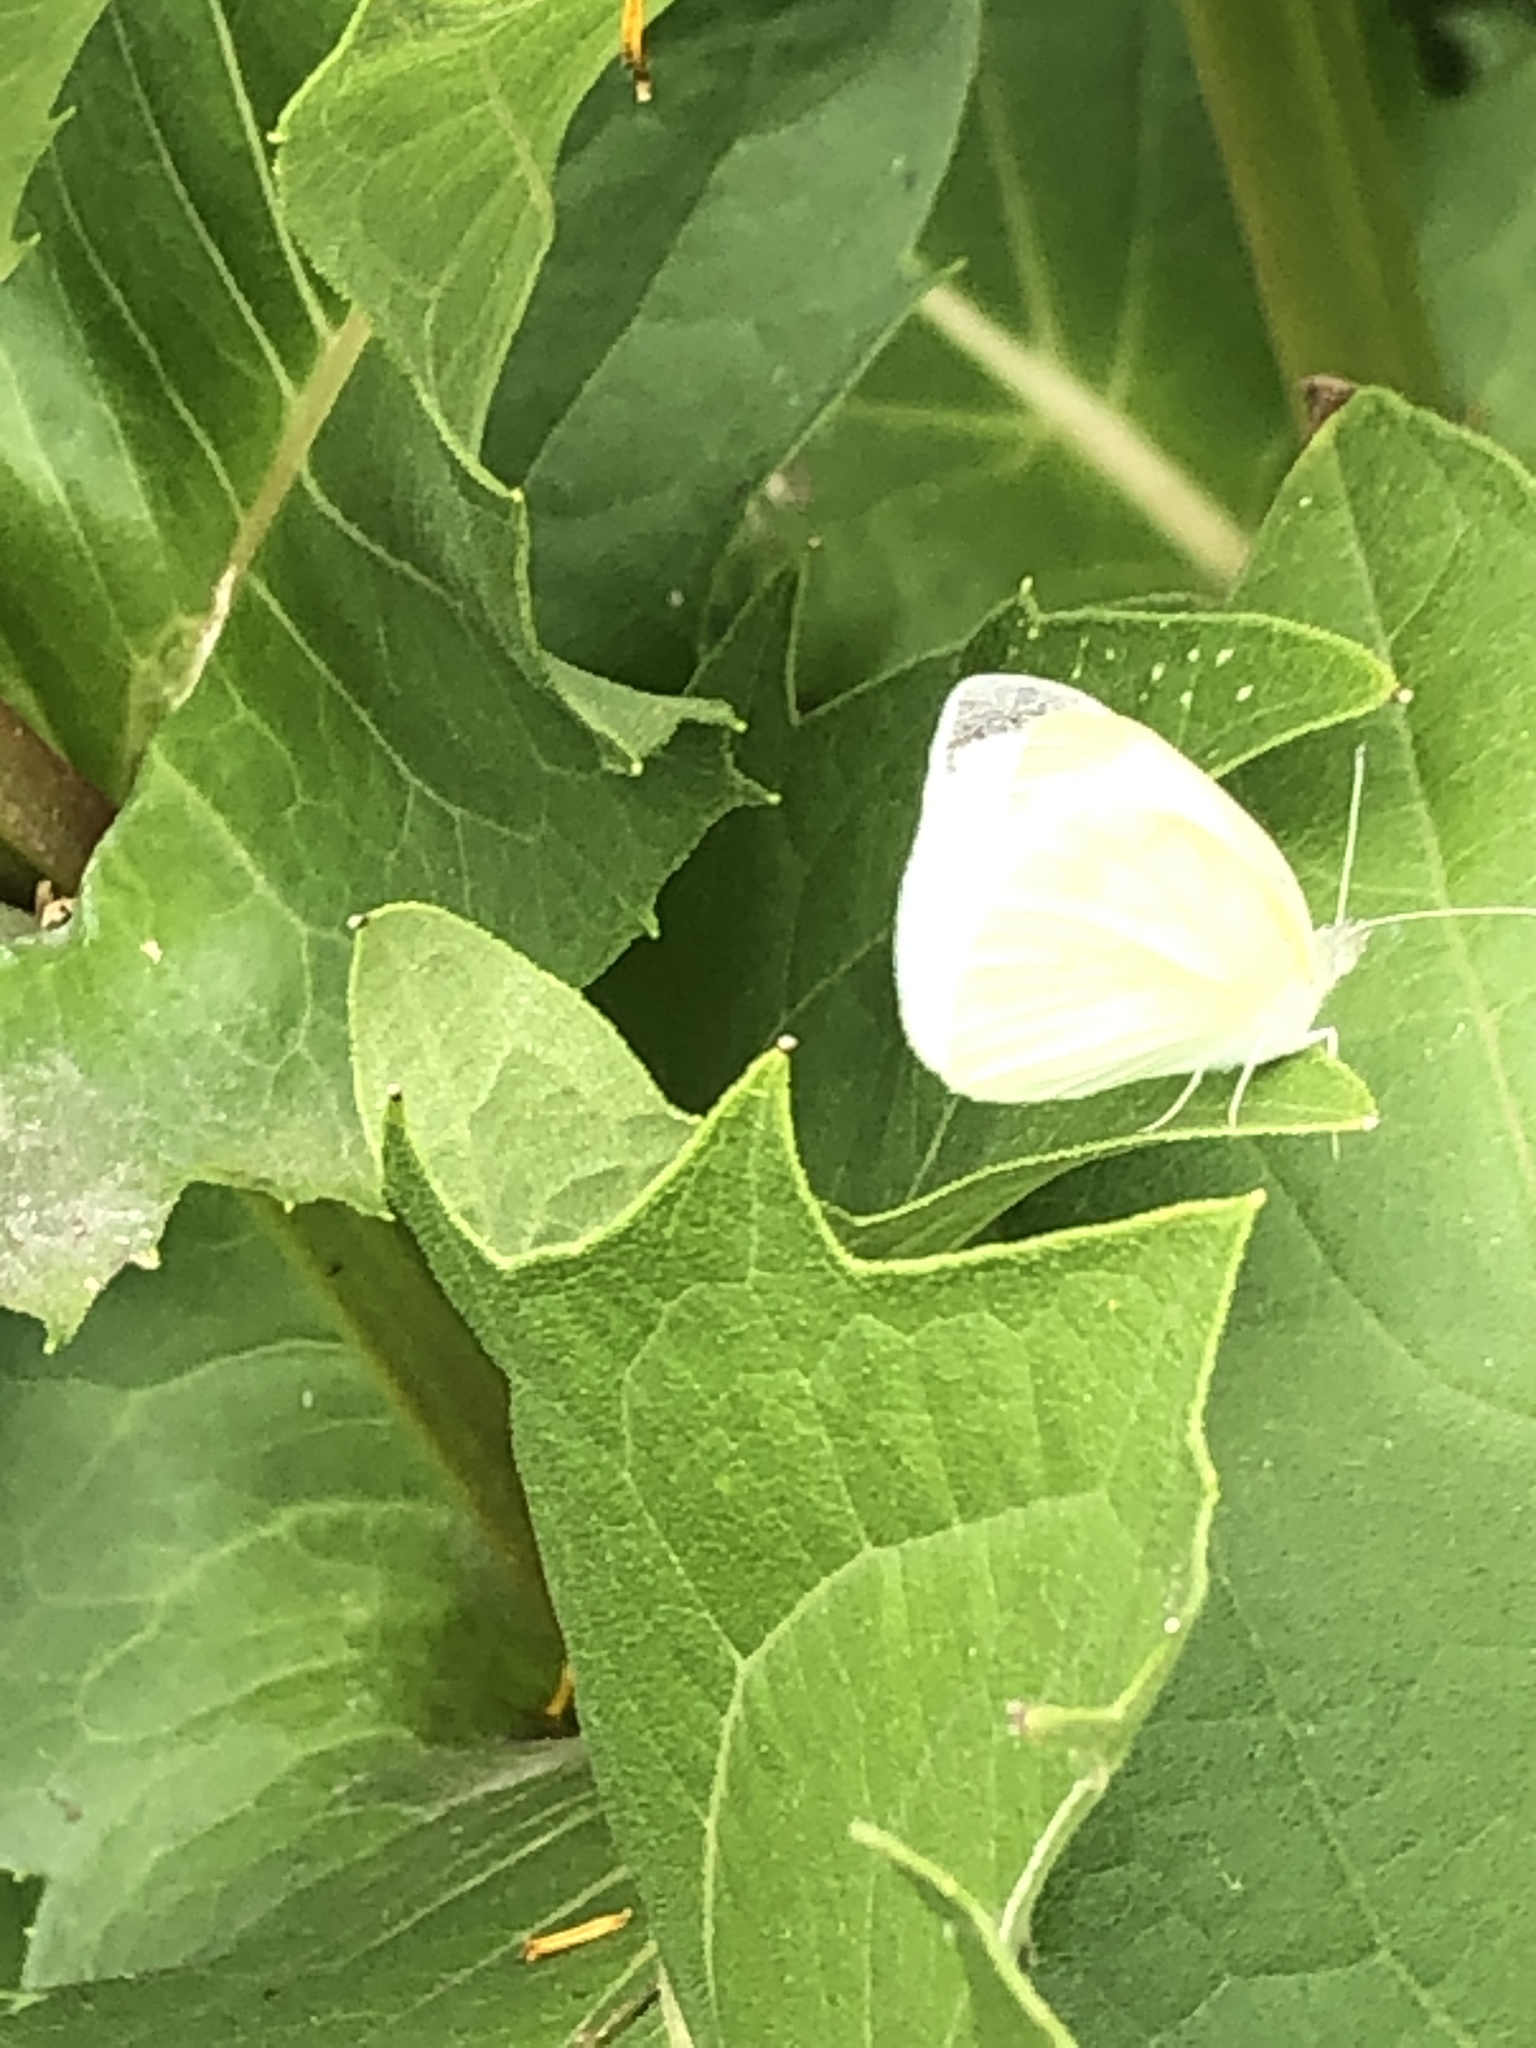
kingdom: Animalia
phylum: Arthropoda
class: Insecta
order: Lepidoptera
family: Pieridae
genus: Pieris
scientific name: Pieris rapae
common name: Small white
